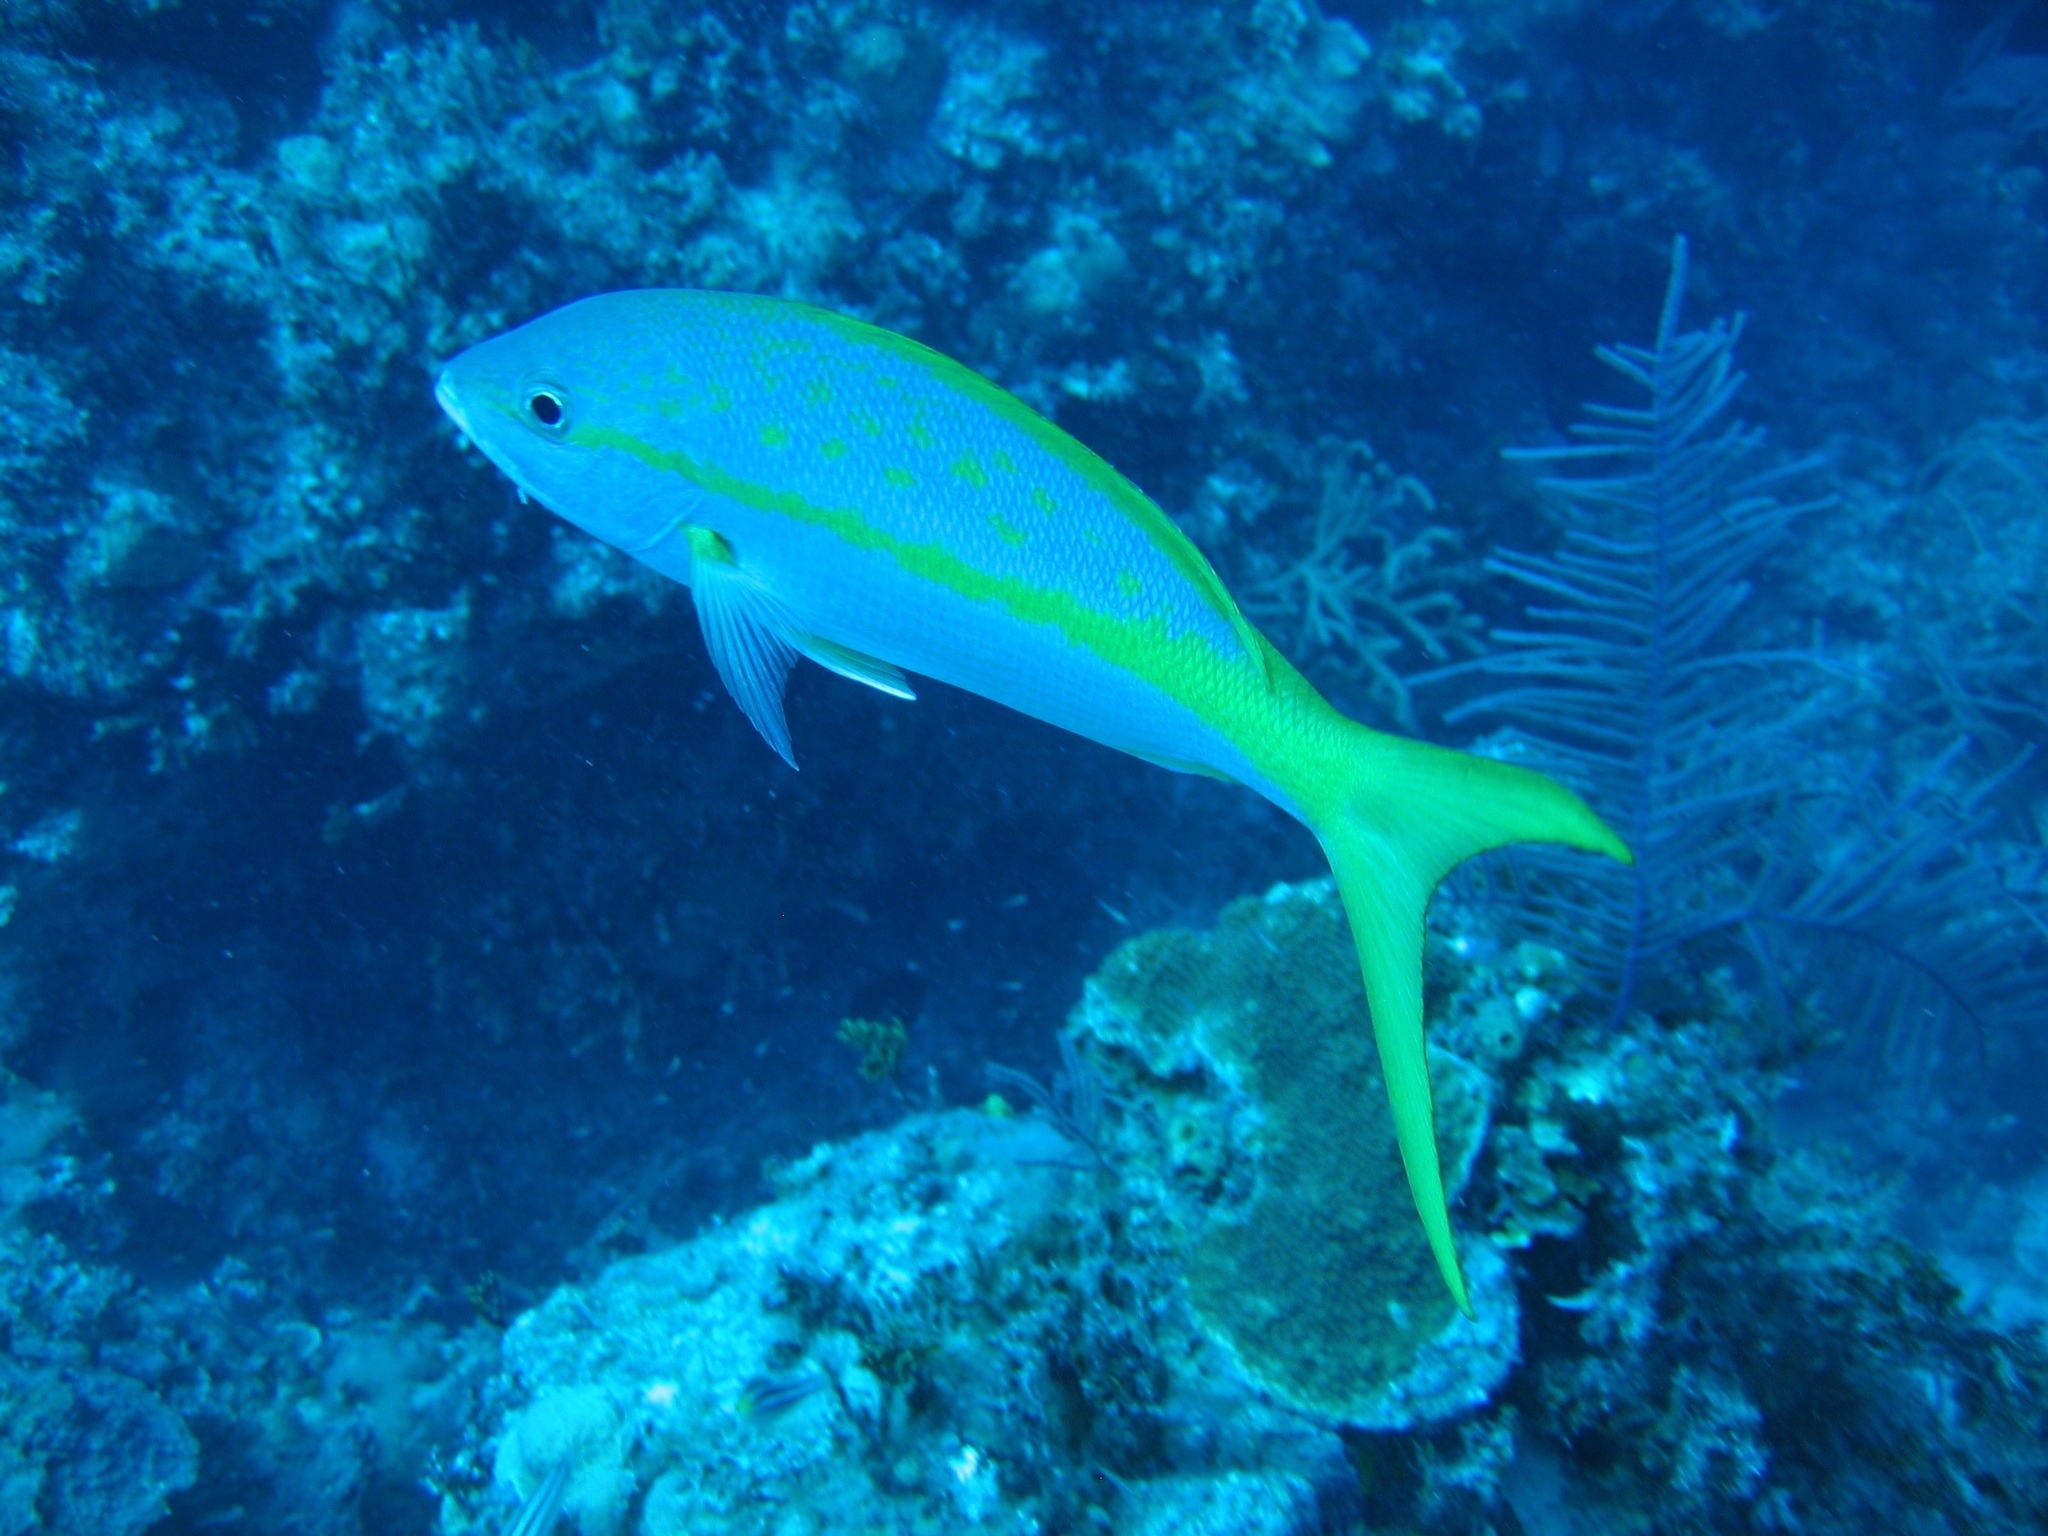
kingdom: Animalia
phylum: Chordata
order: Perciformes
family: Lutjanidae
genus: Ocyurus
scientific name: Ocyurus chrysurus
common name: Yellowtail snapper
